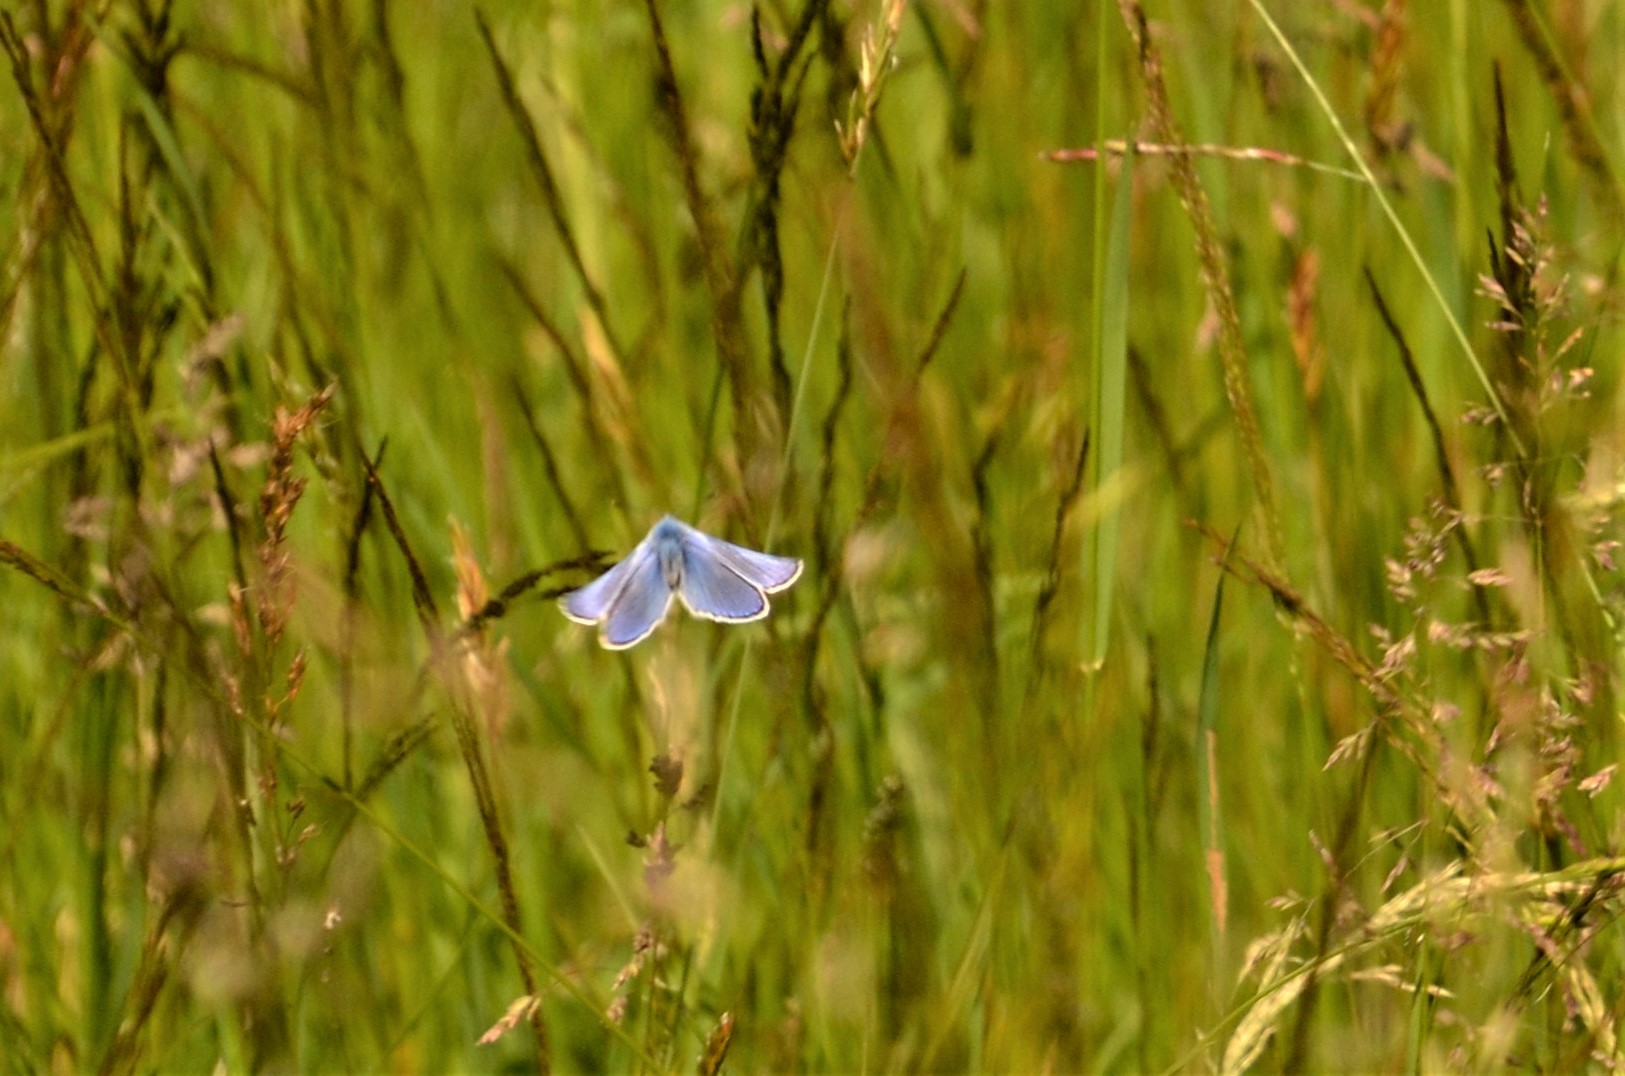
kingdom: Animalia
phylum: Arthropoda
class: Insecta
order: Lepidoptera
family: Lycaenidae
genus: Polyommatus
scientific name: Polyommatus icarus
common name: Common blue
